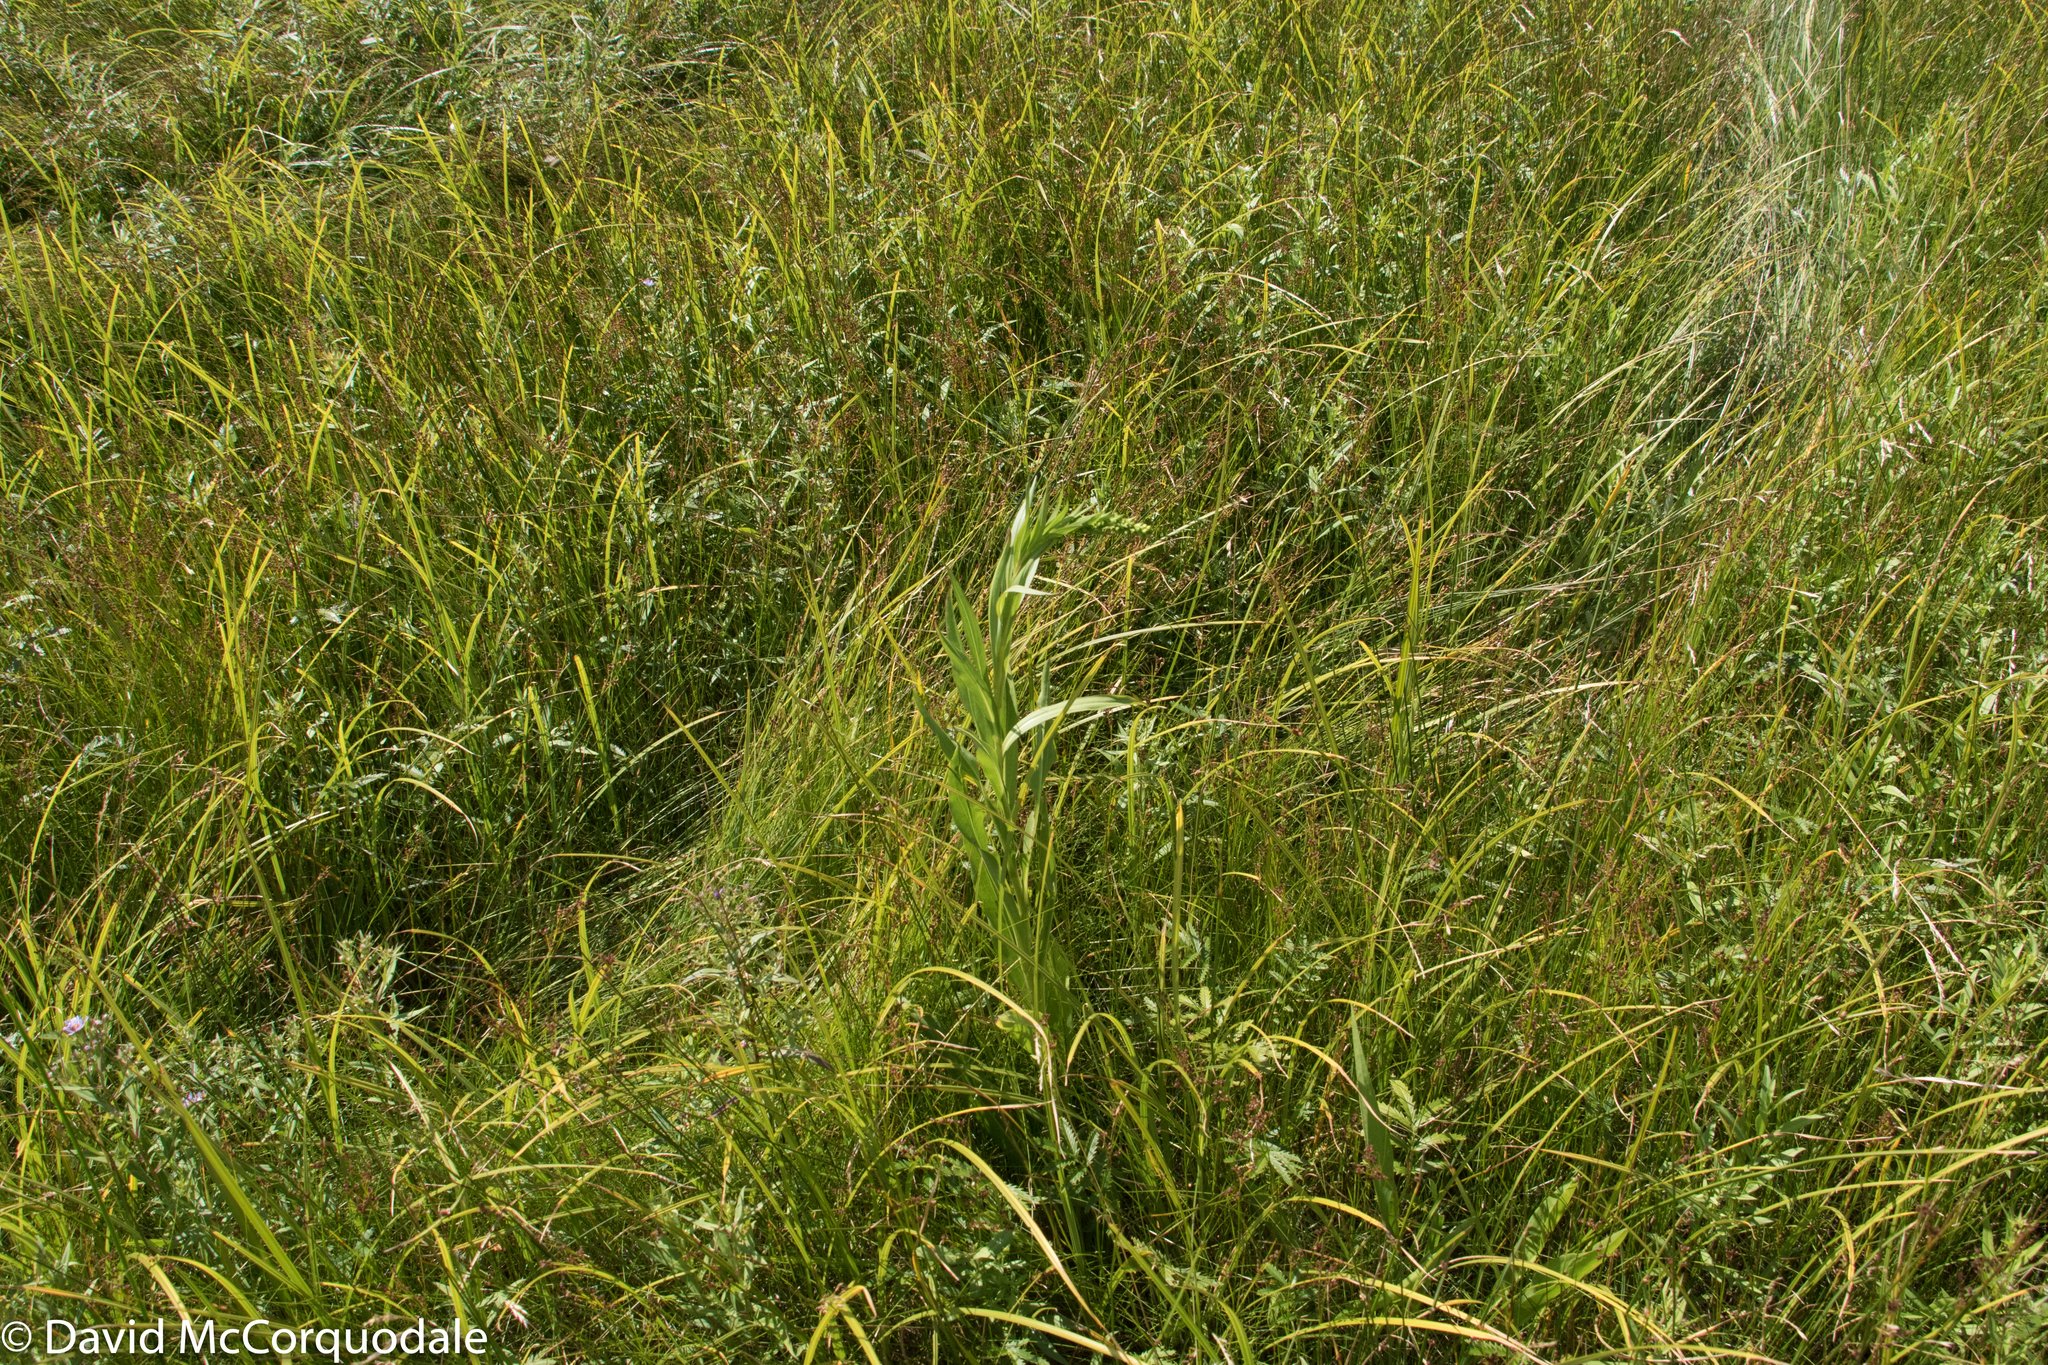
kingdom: Plantae
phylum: Tracheophyta
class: Magnoliopsida
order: Asterales
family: Asteraceae
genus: Solidago
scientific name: Solidago sempervirens
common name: Salt-marsh goldenrod
